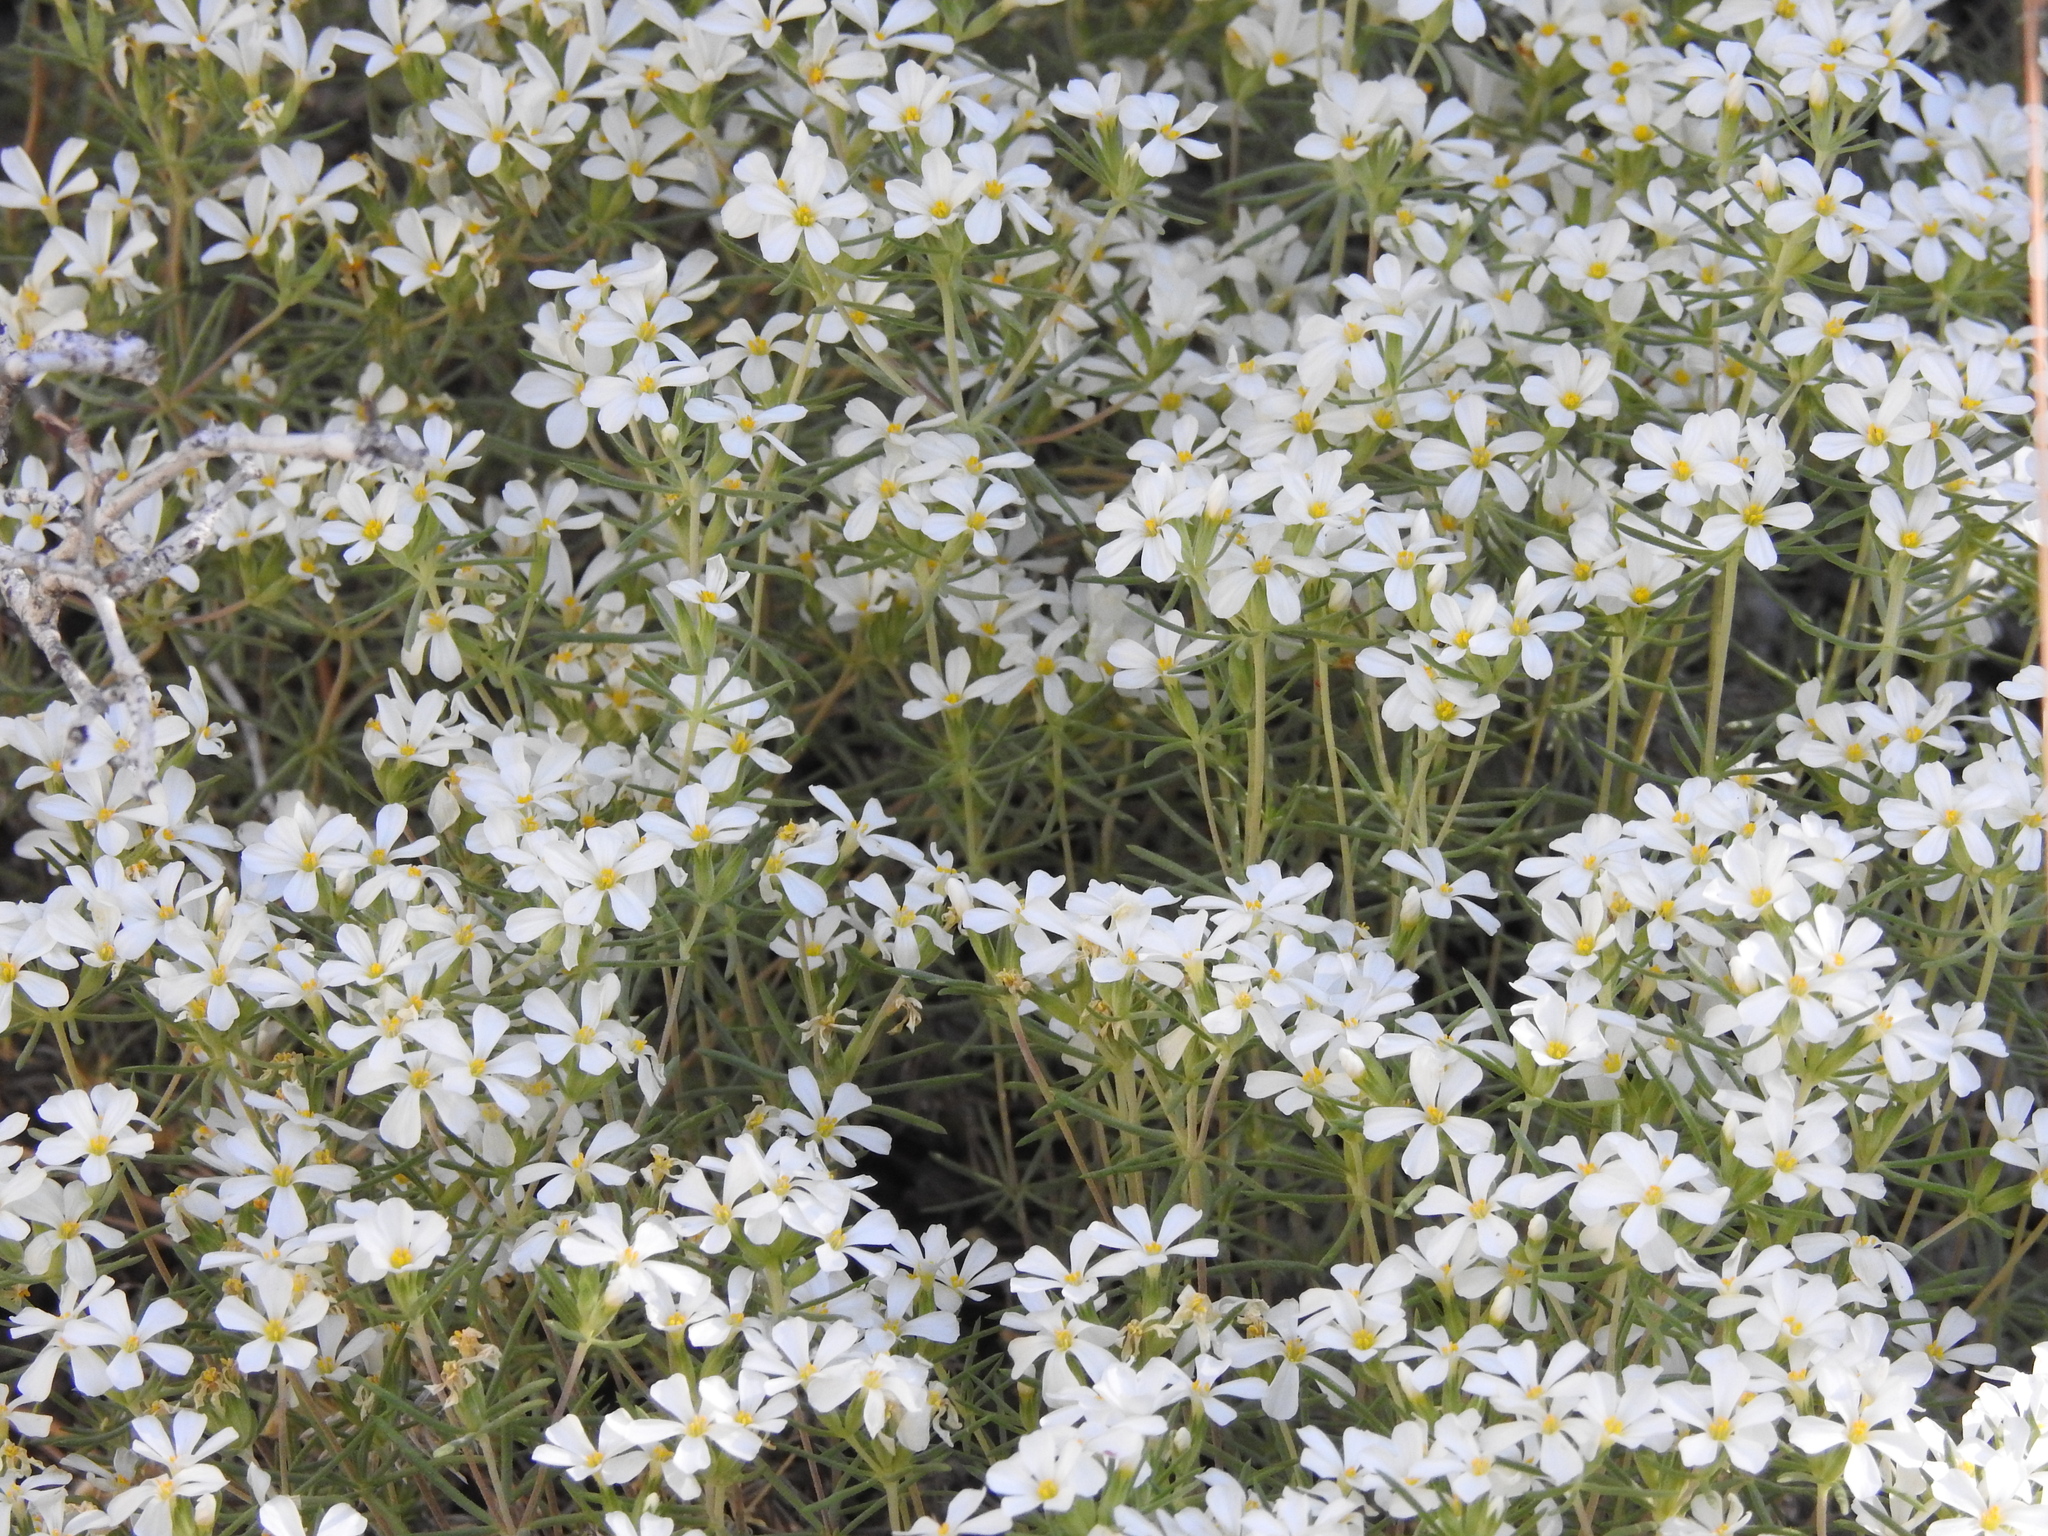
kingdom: Plantae
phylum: Tracheophyta
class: Magnoliopsida
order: Ericales
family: Polemoniaceae
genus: Leptosiphon
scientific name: Leptosiphon nuttallii
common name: Nuttall's linanthus
